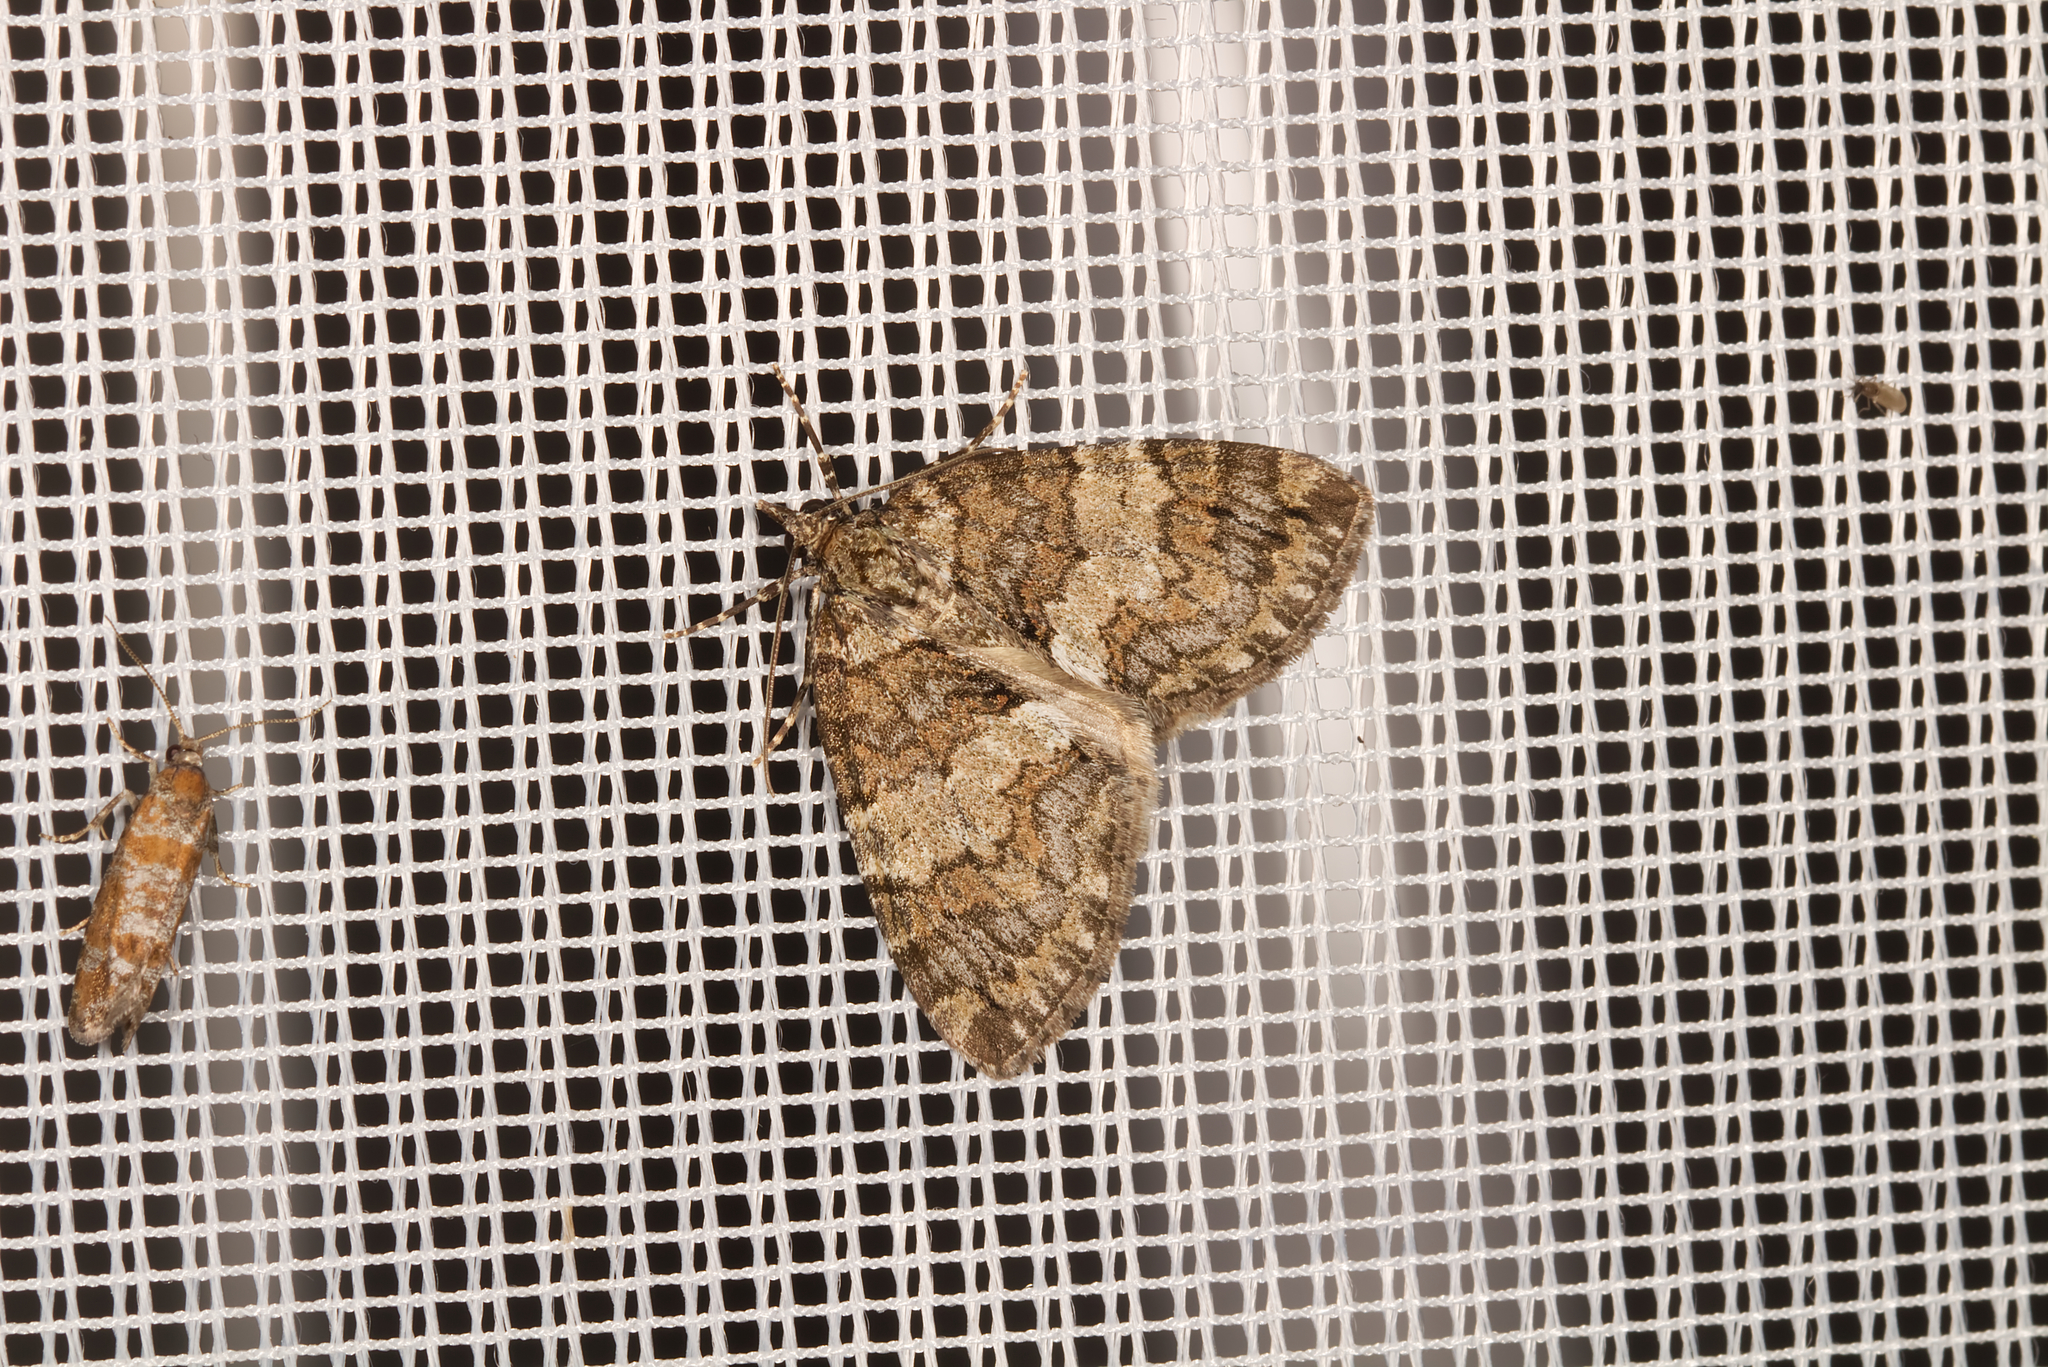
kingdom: Animalia
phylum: Arthropoda
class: Insecta
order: Lepidoptera
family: Geometridae
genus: Hydriomena
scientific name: Hydriomena ruberata
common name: Ruddy highflyer
